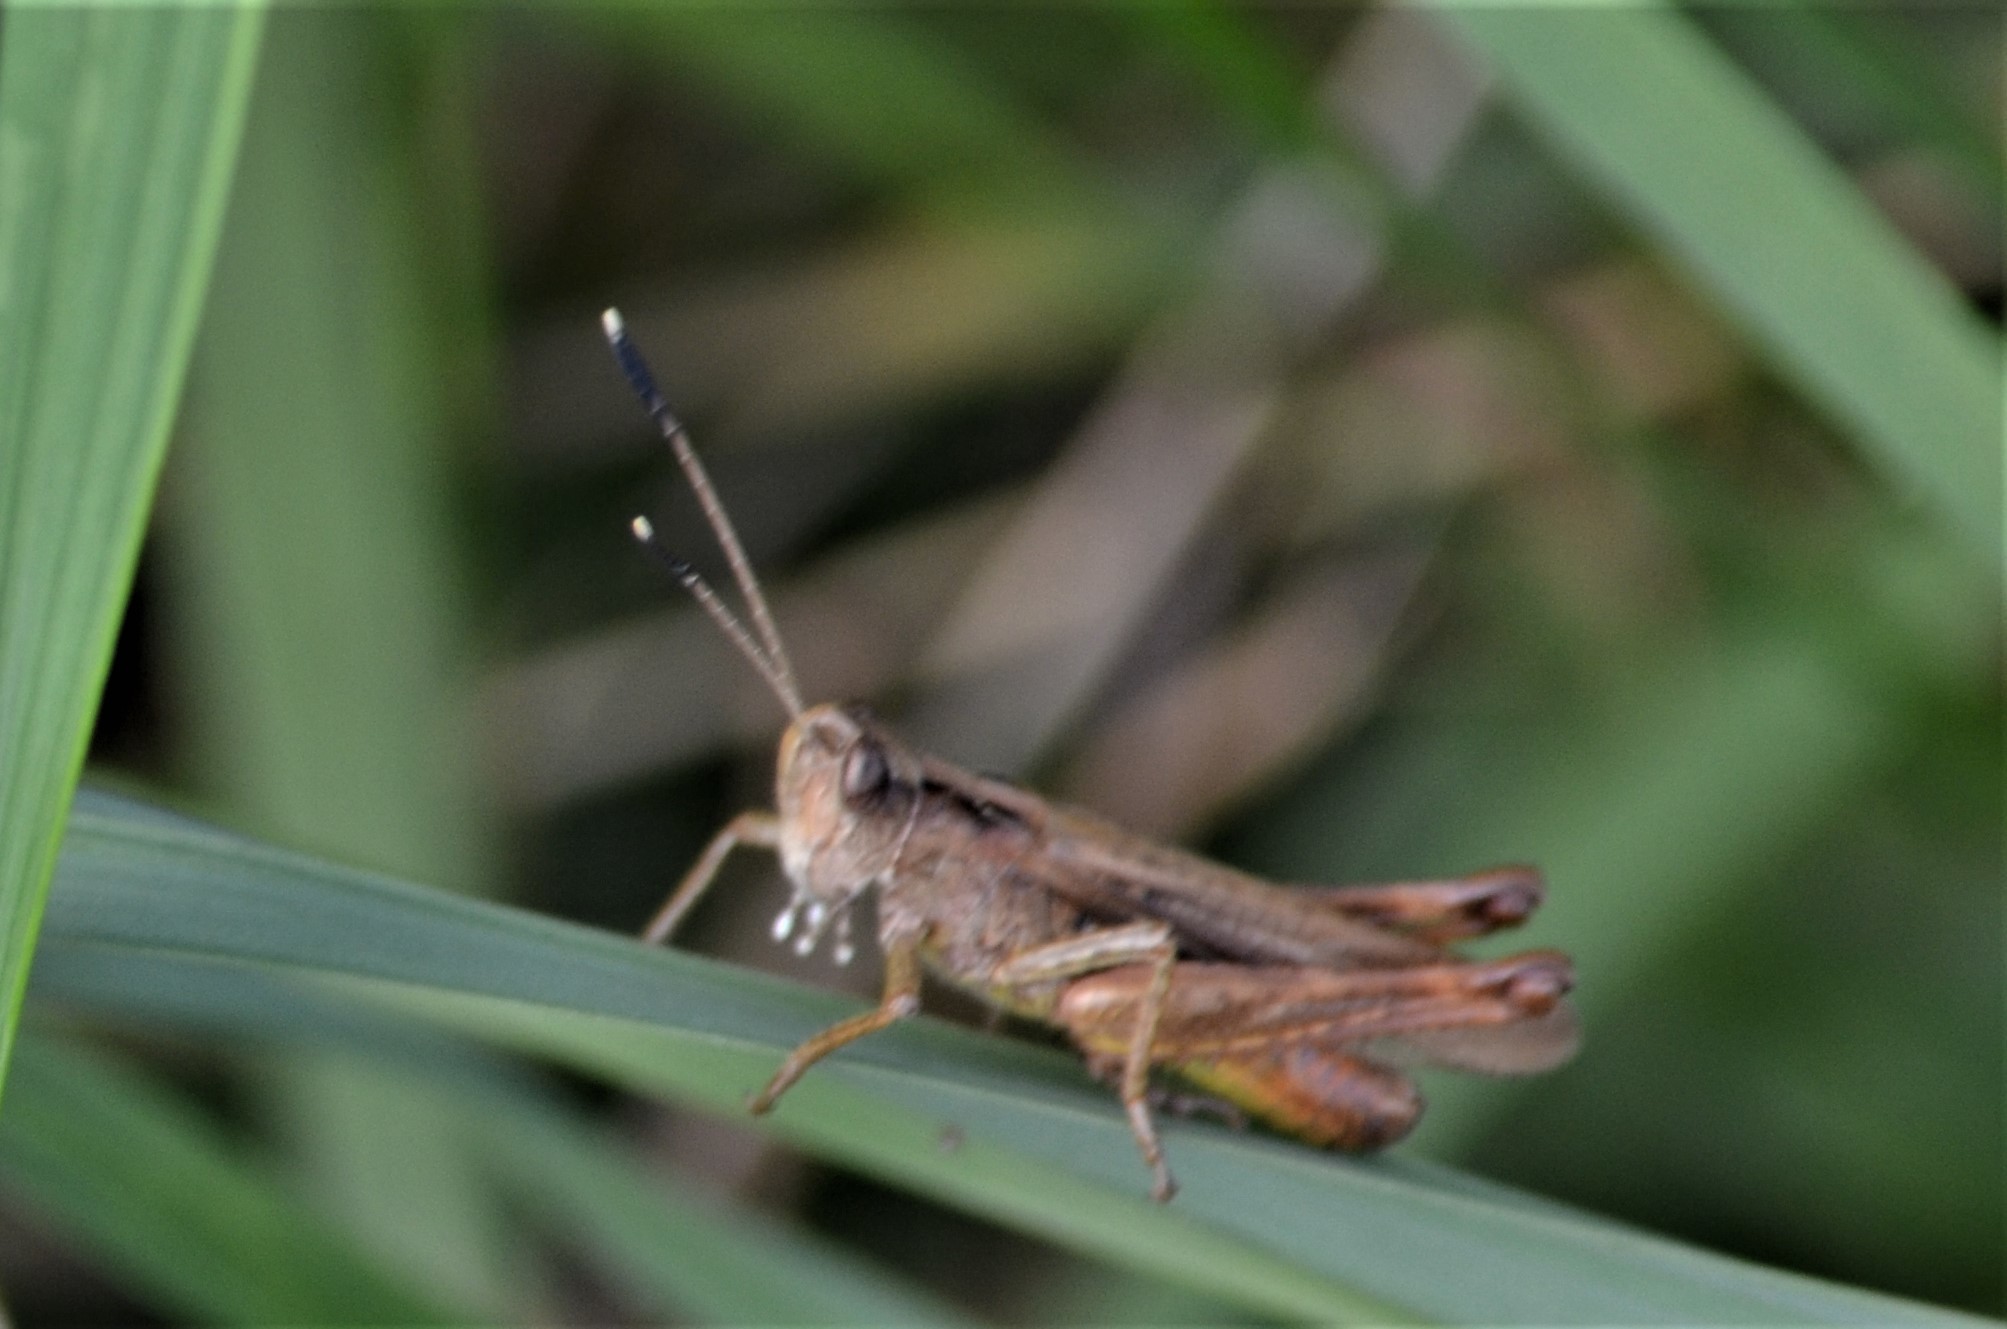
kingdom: Animalia
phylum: Arthropoda
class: Insecta
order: Orthoptera
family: Acrididae
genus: Gomphocerippus
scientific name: Gomphocerippus rufus
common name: Rufous grasshopper
